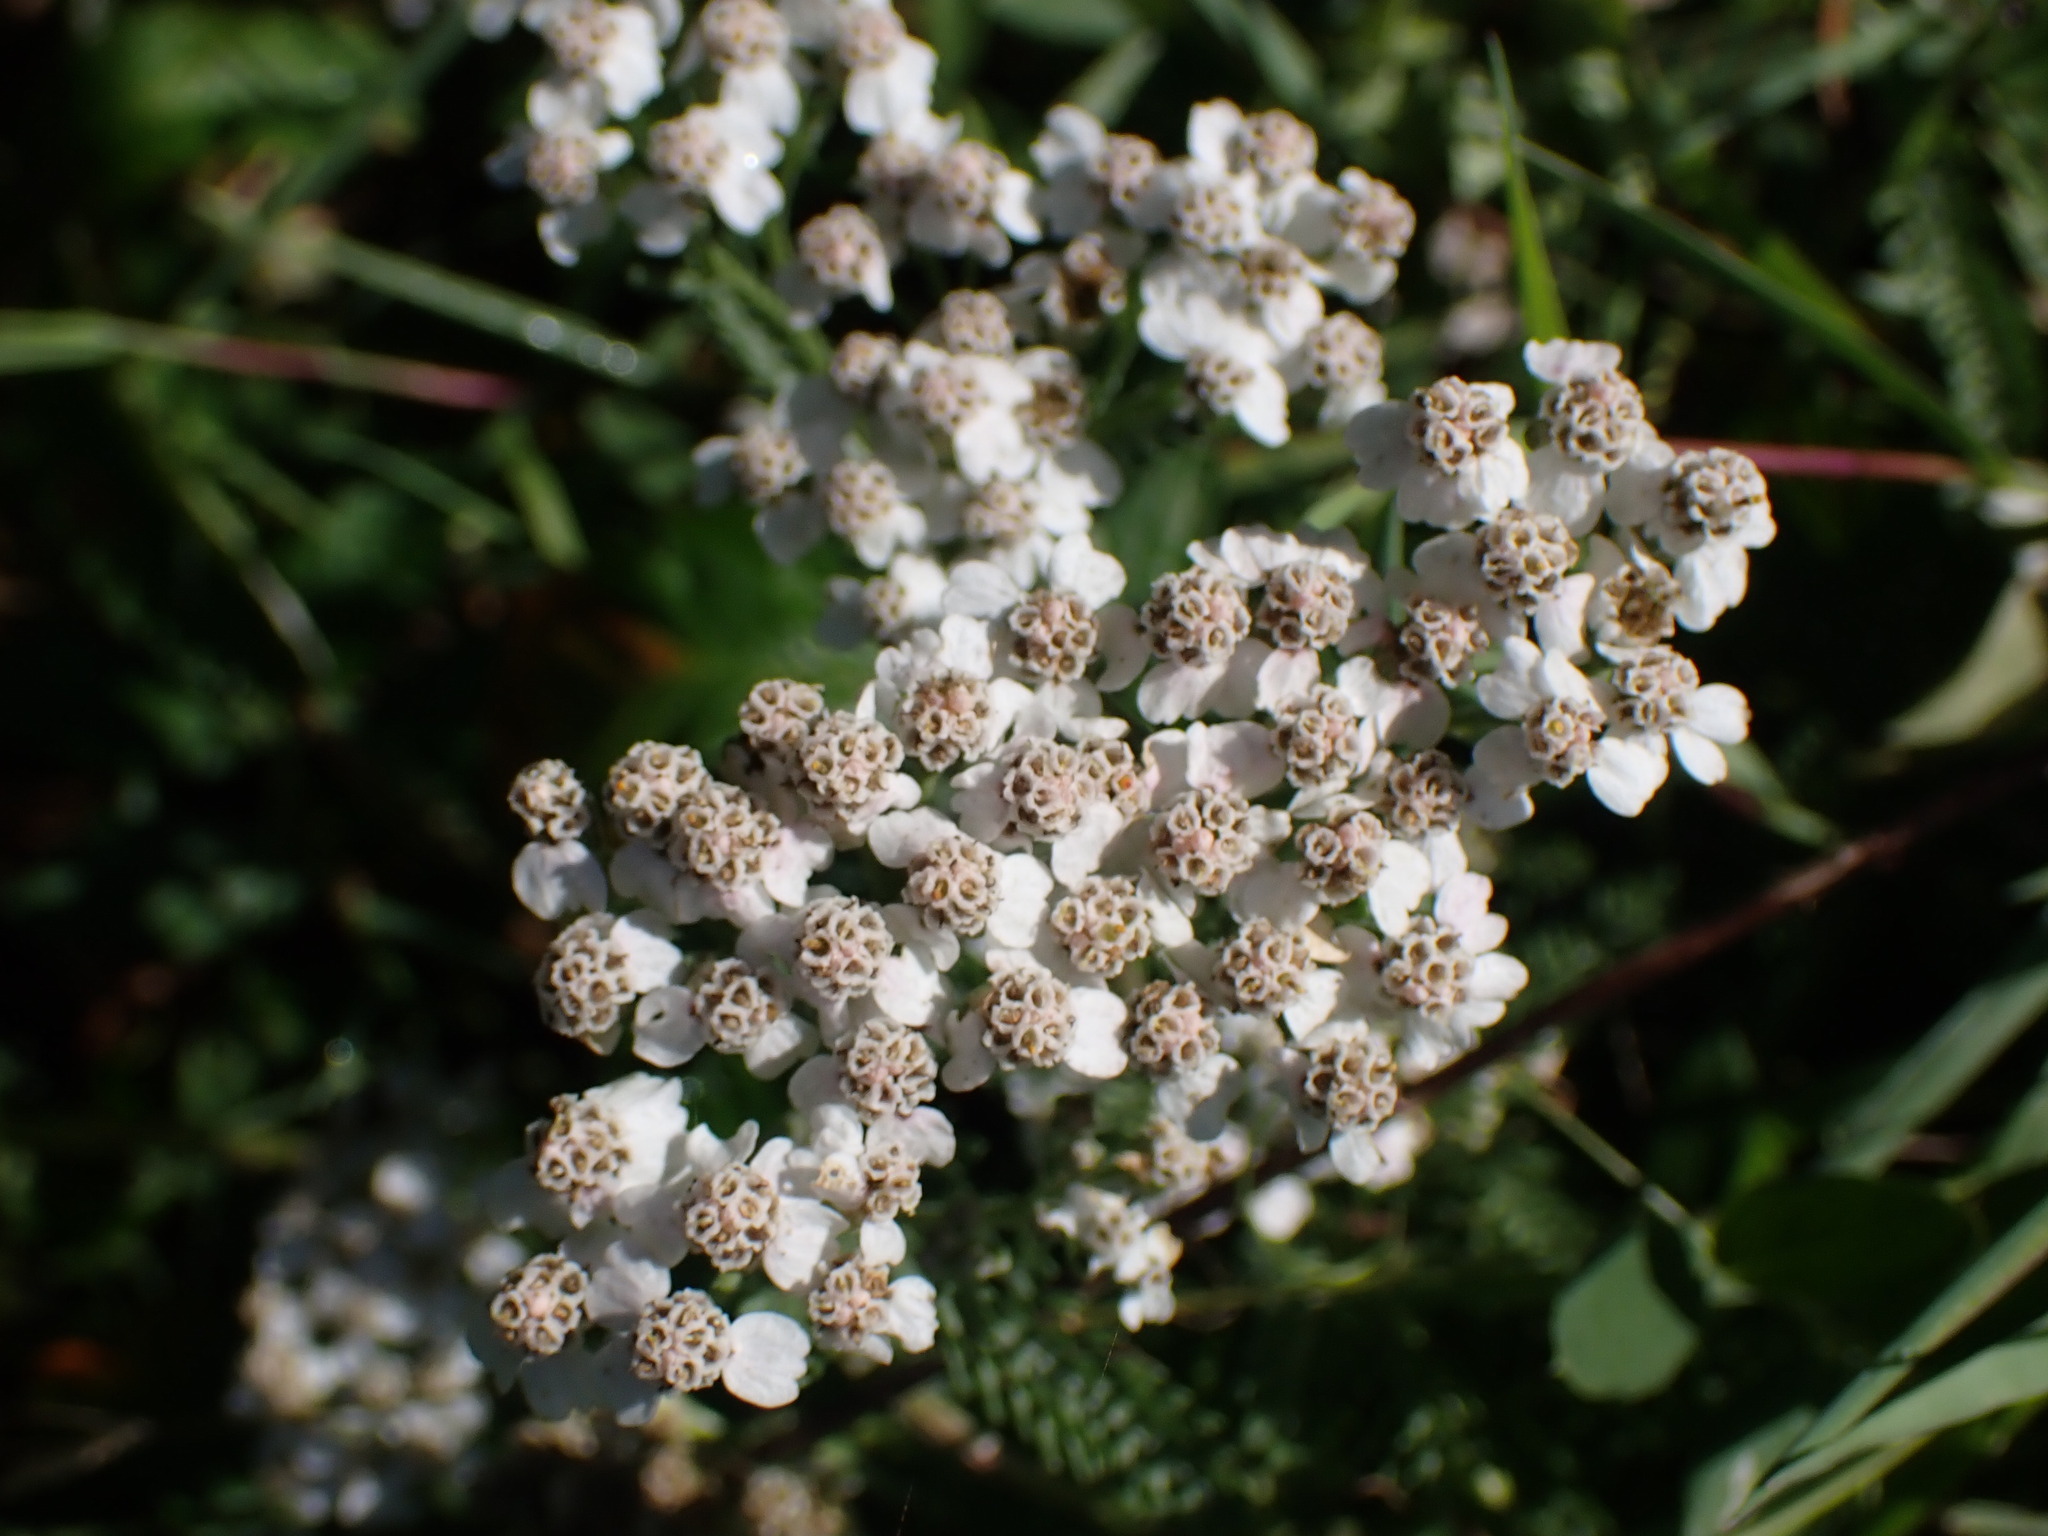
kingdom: Plantae
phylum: Tracheophyta
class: Magnoliopsida
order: Asterales
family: Asteraceae
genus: Achillea
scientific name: Achillea millefolium
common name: Yarrow
